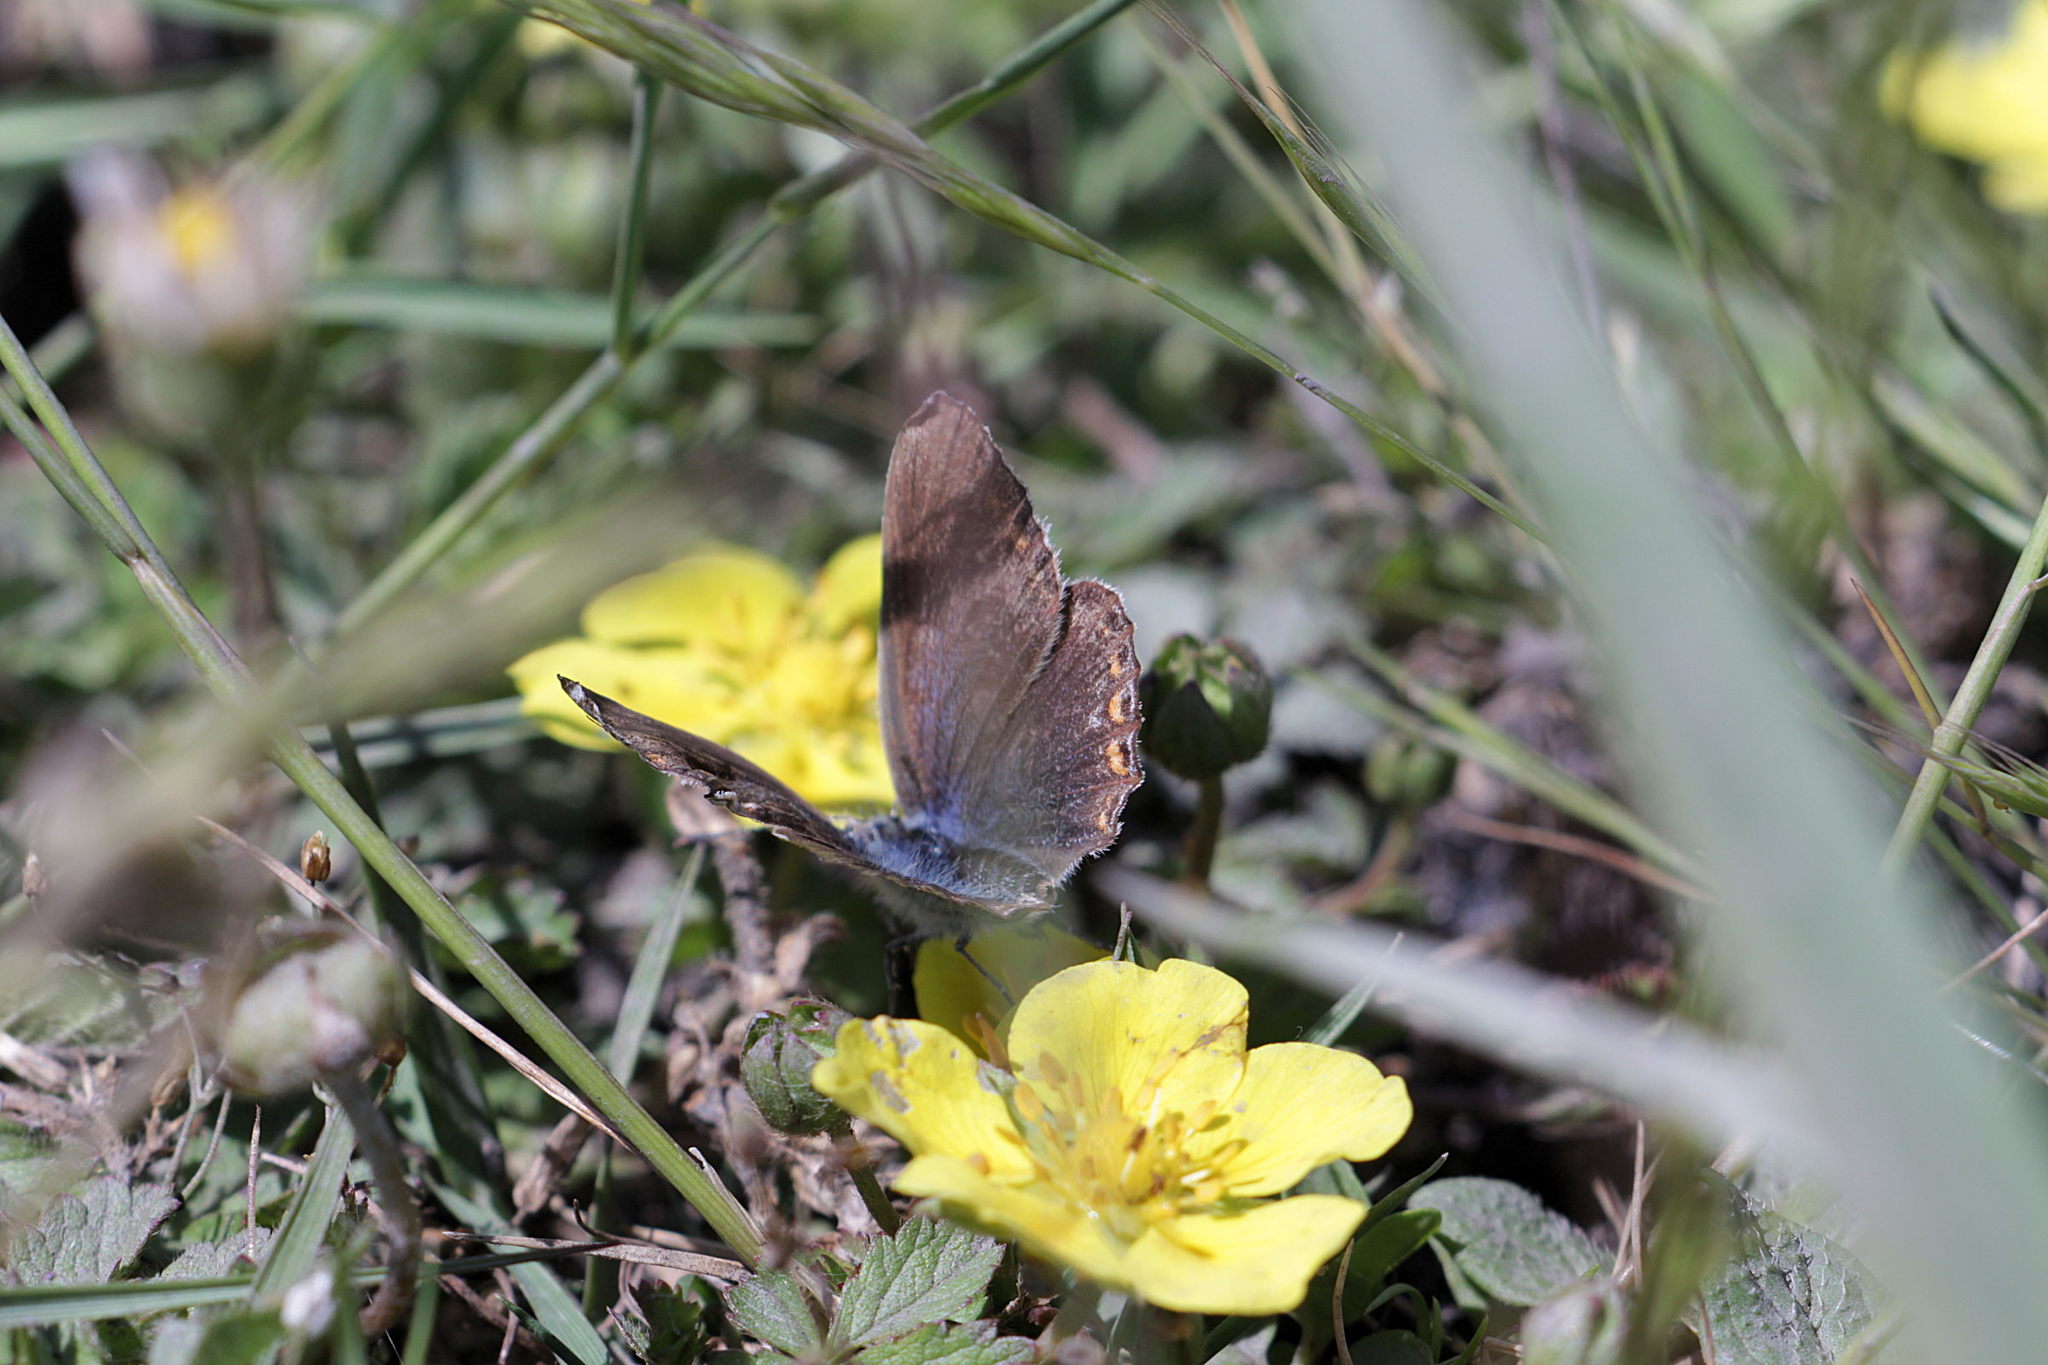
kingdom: Animalia
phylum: Arthropoda
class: Insecta
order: Lepidoptera
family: Lycaenidae
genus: Polyommatus
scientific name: Polyommatus icarus
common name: Common blue
